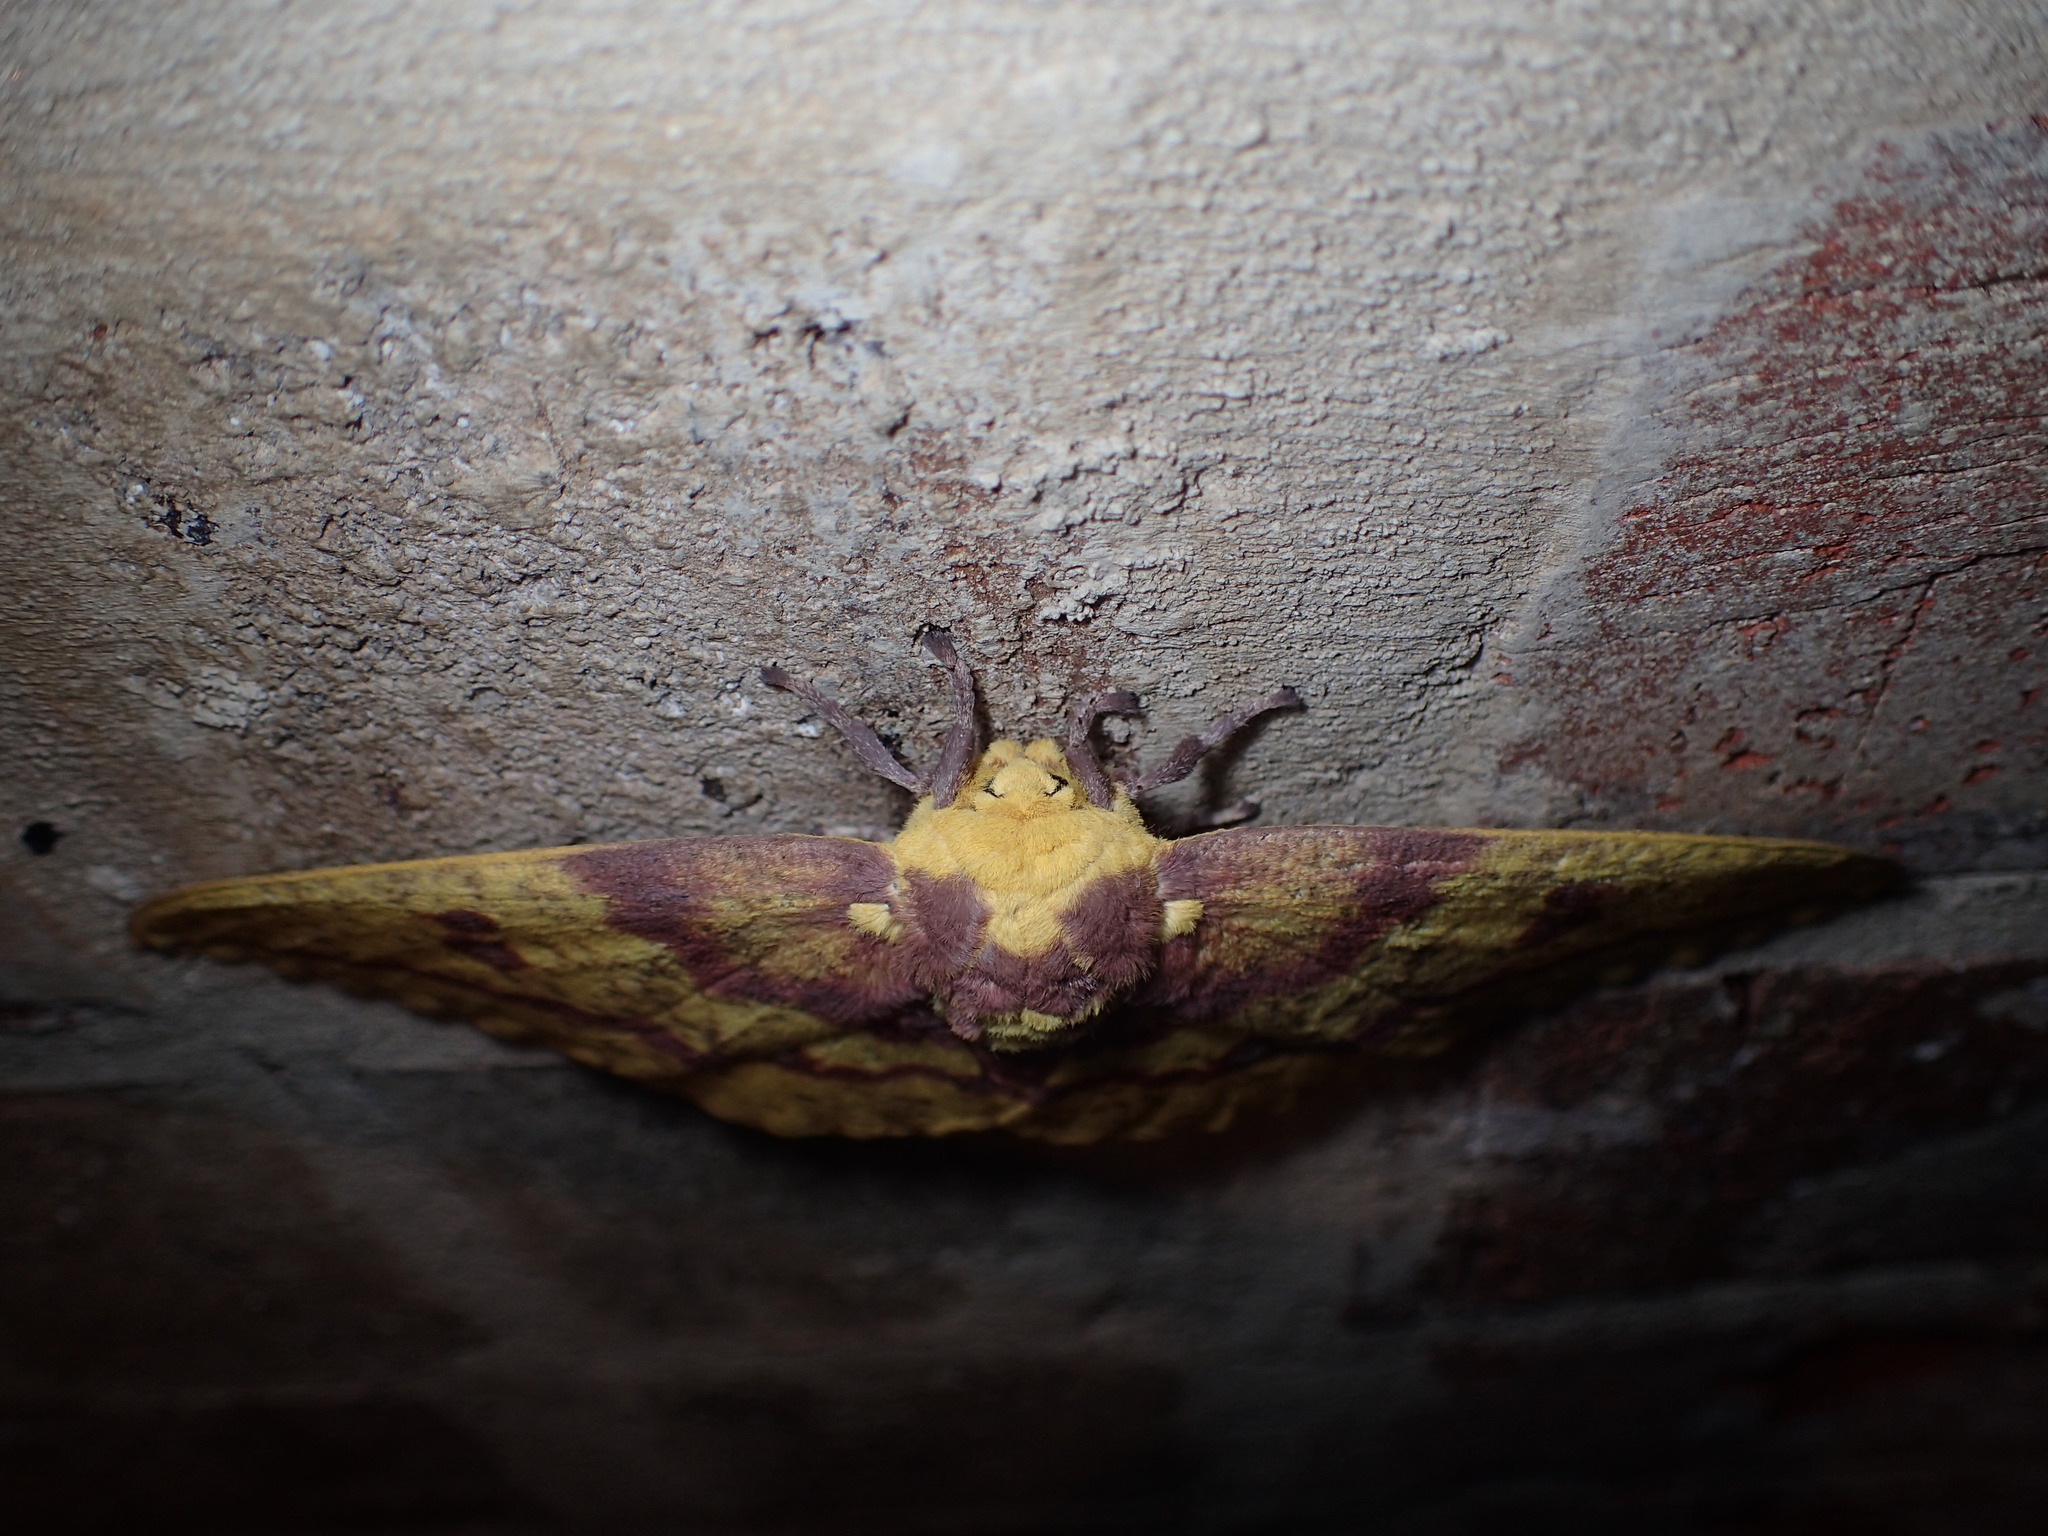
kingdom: Animalia
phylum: Arthropoda
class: Insecta
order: Lepidoptera
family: Saturniidae
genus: Eacles
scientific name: Eacles imperialis
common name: Imperial moth
